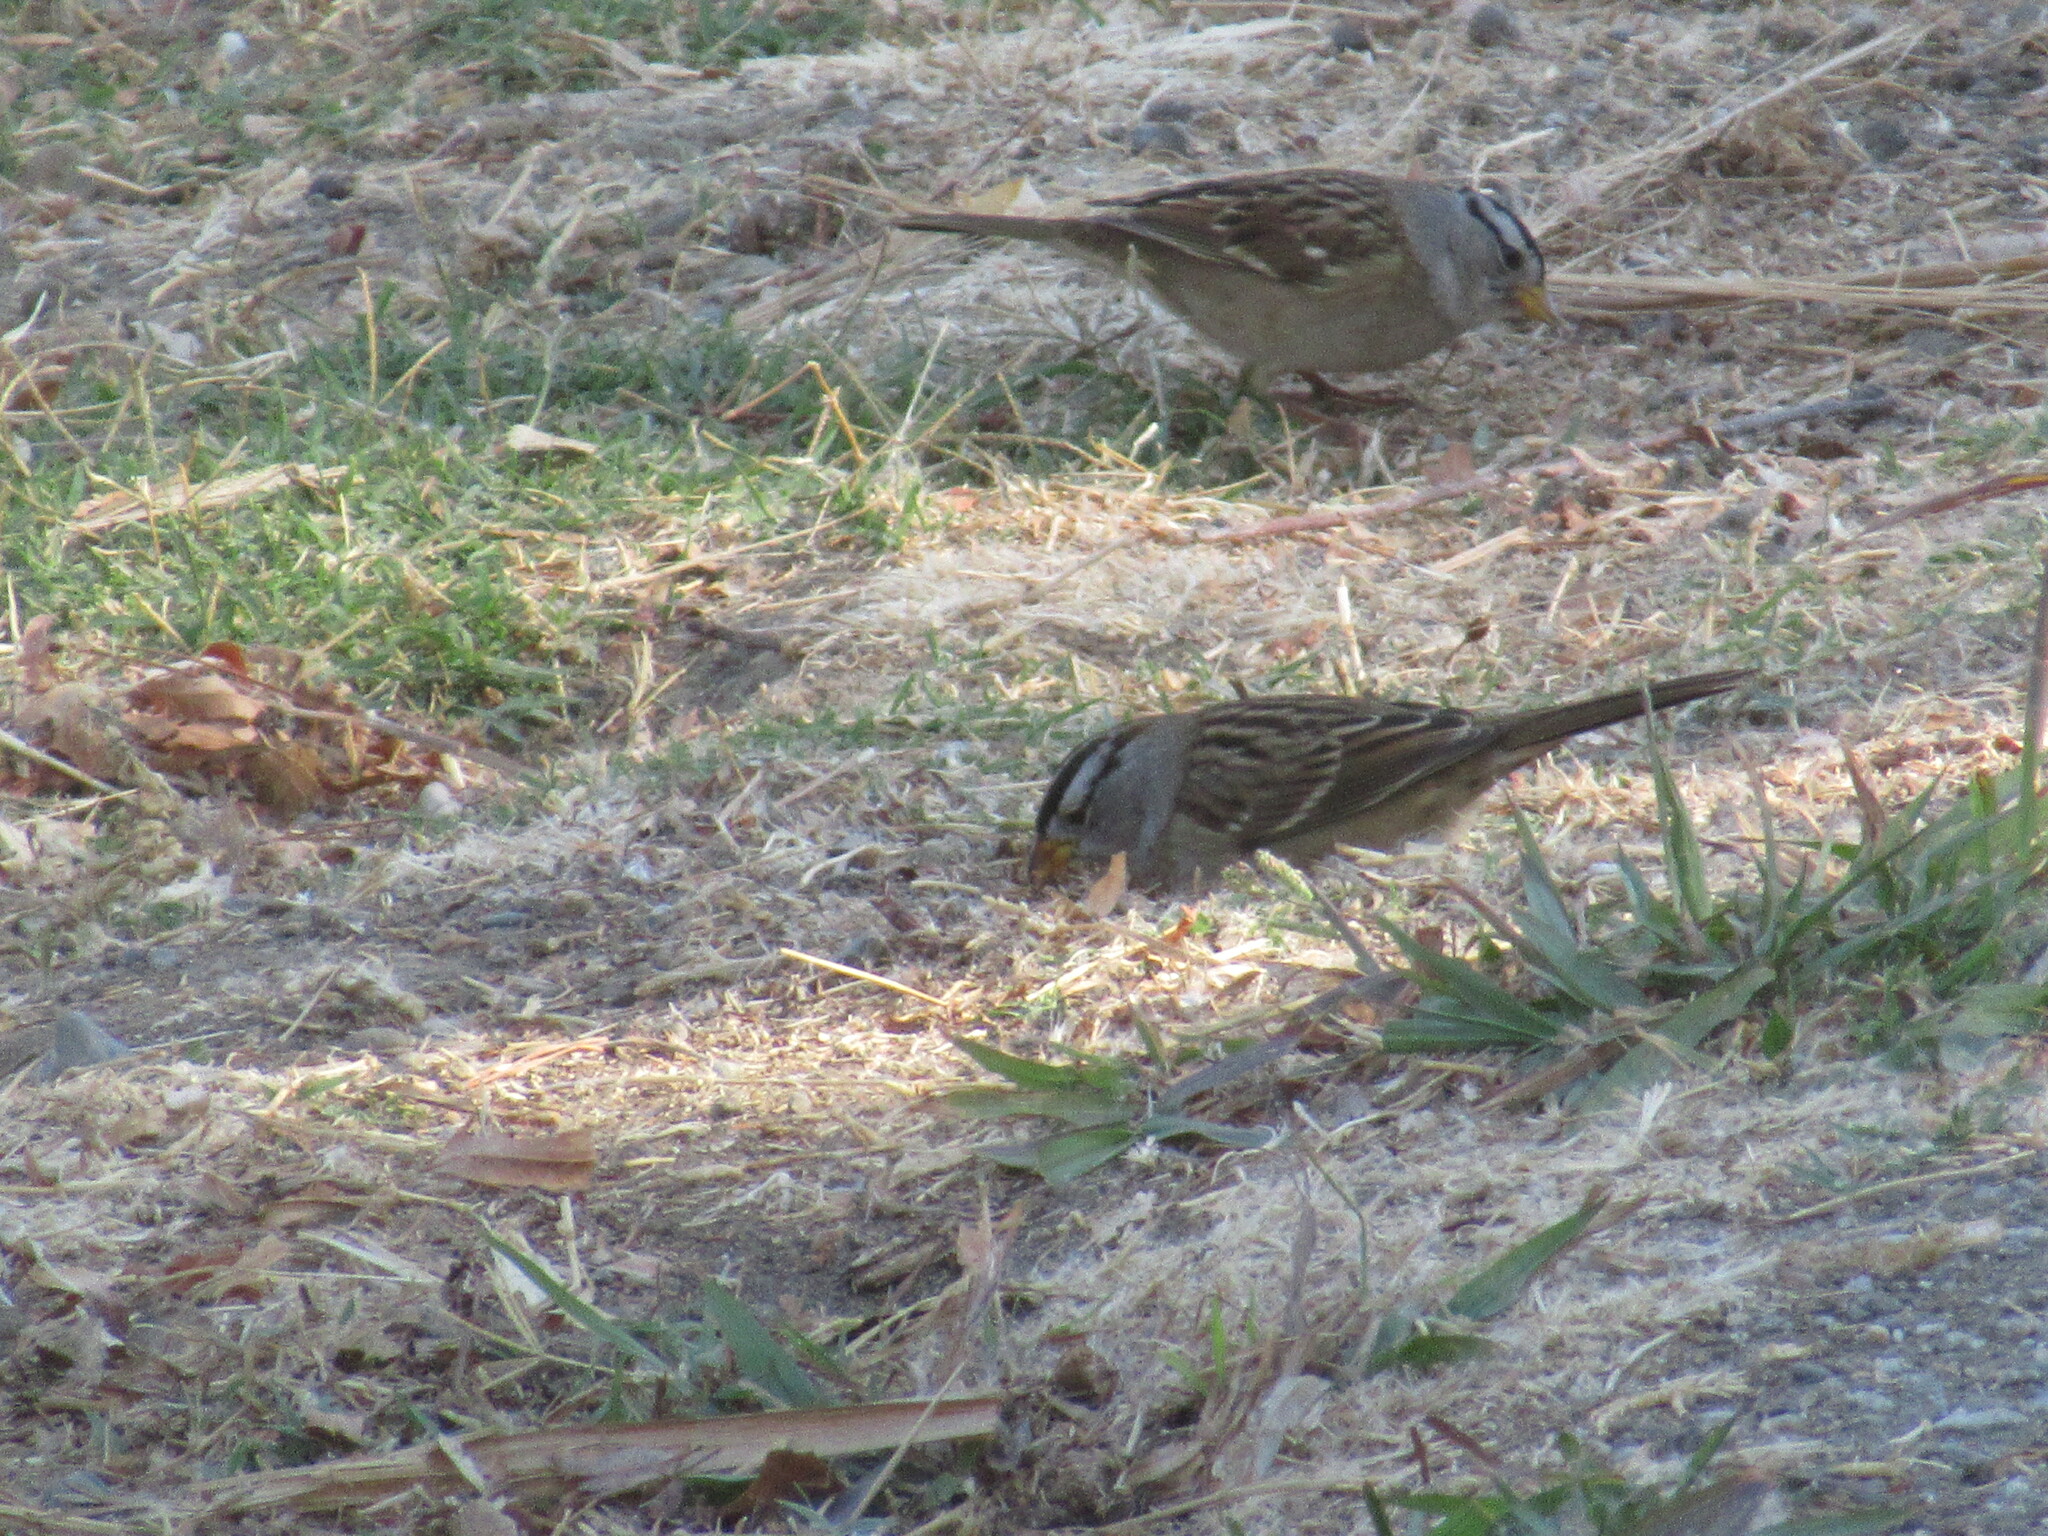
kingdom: Animalia
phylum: Chordata
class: Aves
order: Passeriformes
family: Passerellidae
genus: Zonotrichia
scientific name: Zonotrichia leucophrys
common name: White-crowned sparrow
